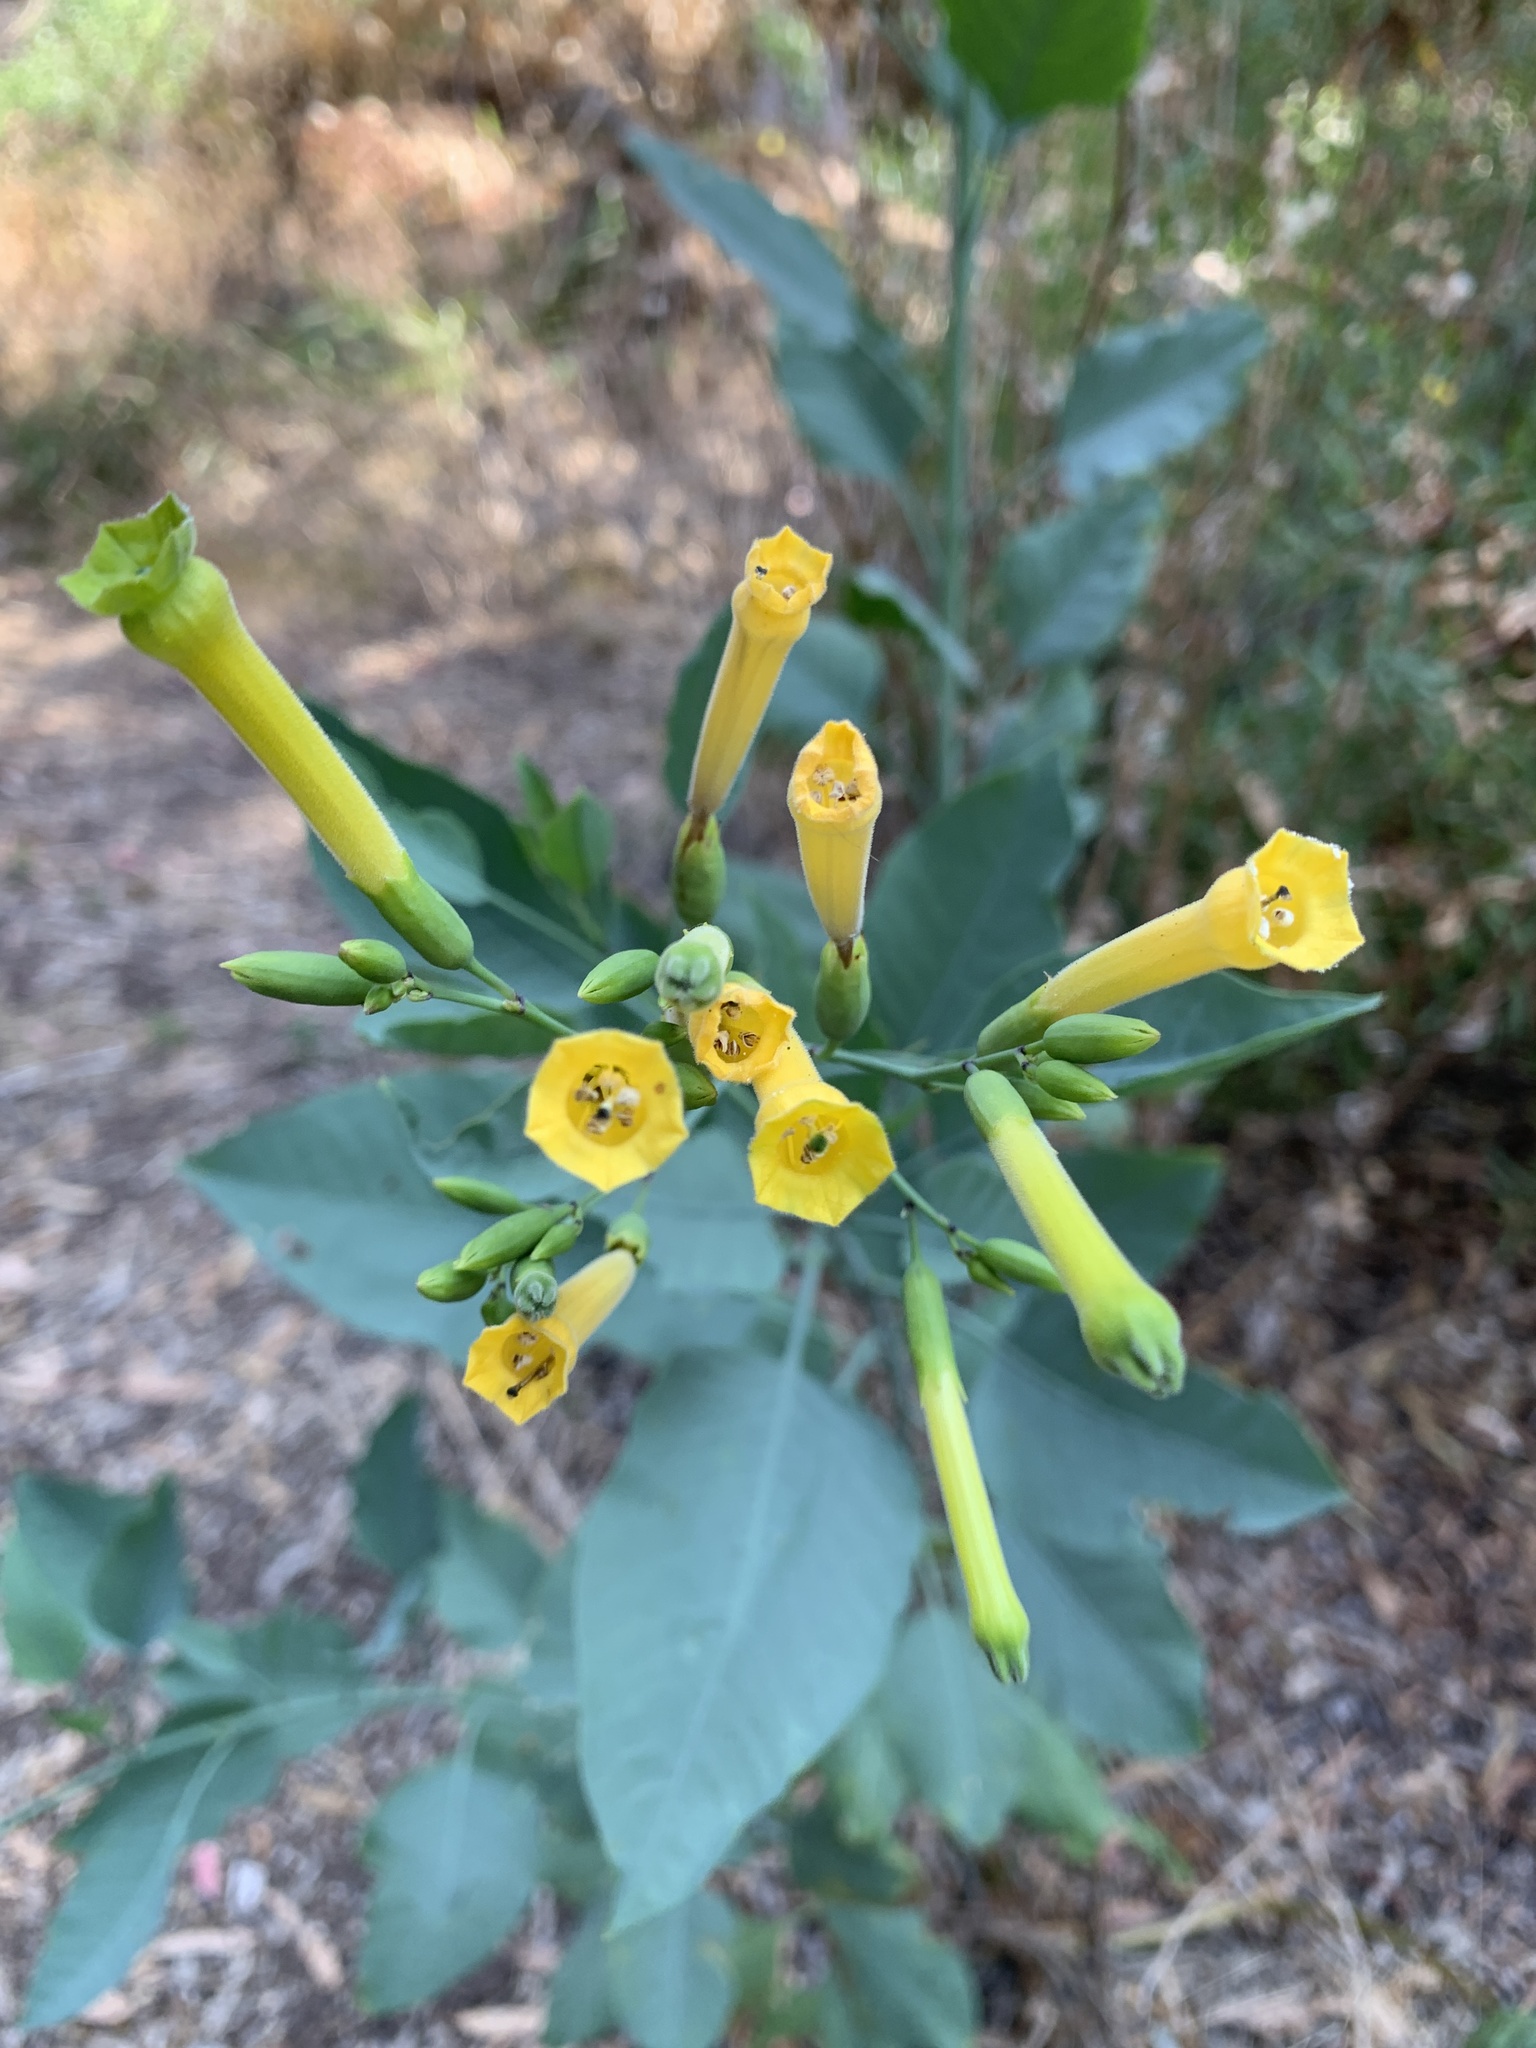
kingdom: Plantae
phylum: Tracheophyta
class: Magnoliopsida
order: Solanales
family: Solanaceae
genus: Nicotiana
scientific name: Nicotiana glauca
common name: Tree tobacco
